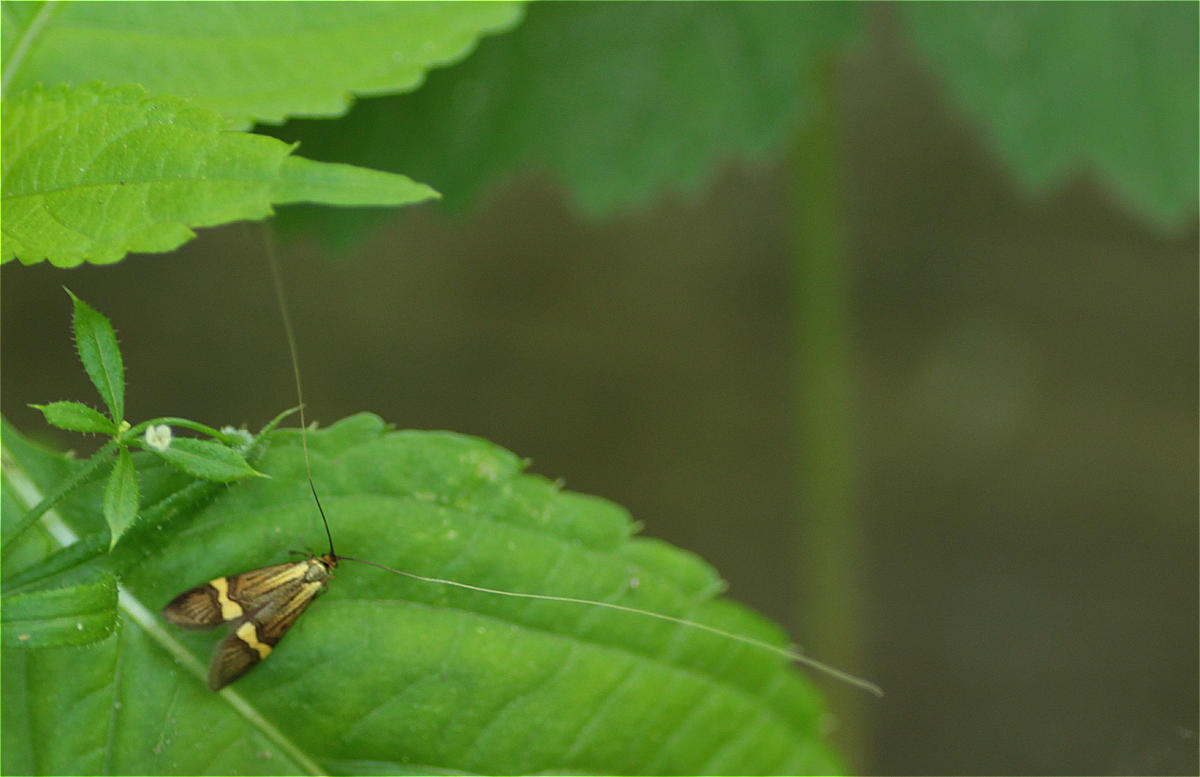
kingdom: Animalia
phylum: Arthropoda
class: Insecta
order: Lepidoptera
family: Adelidae
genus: Nemophora
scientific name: Nemophora
